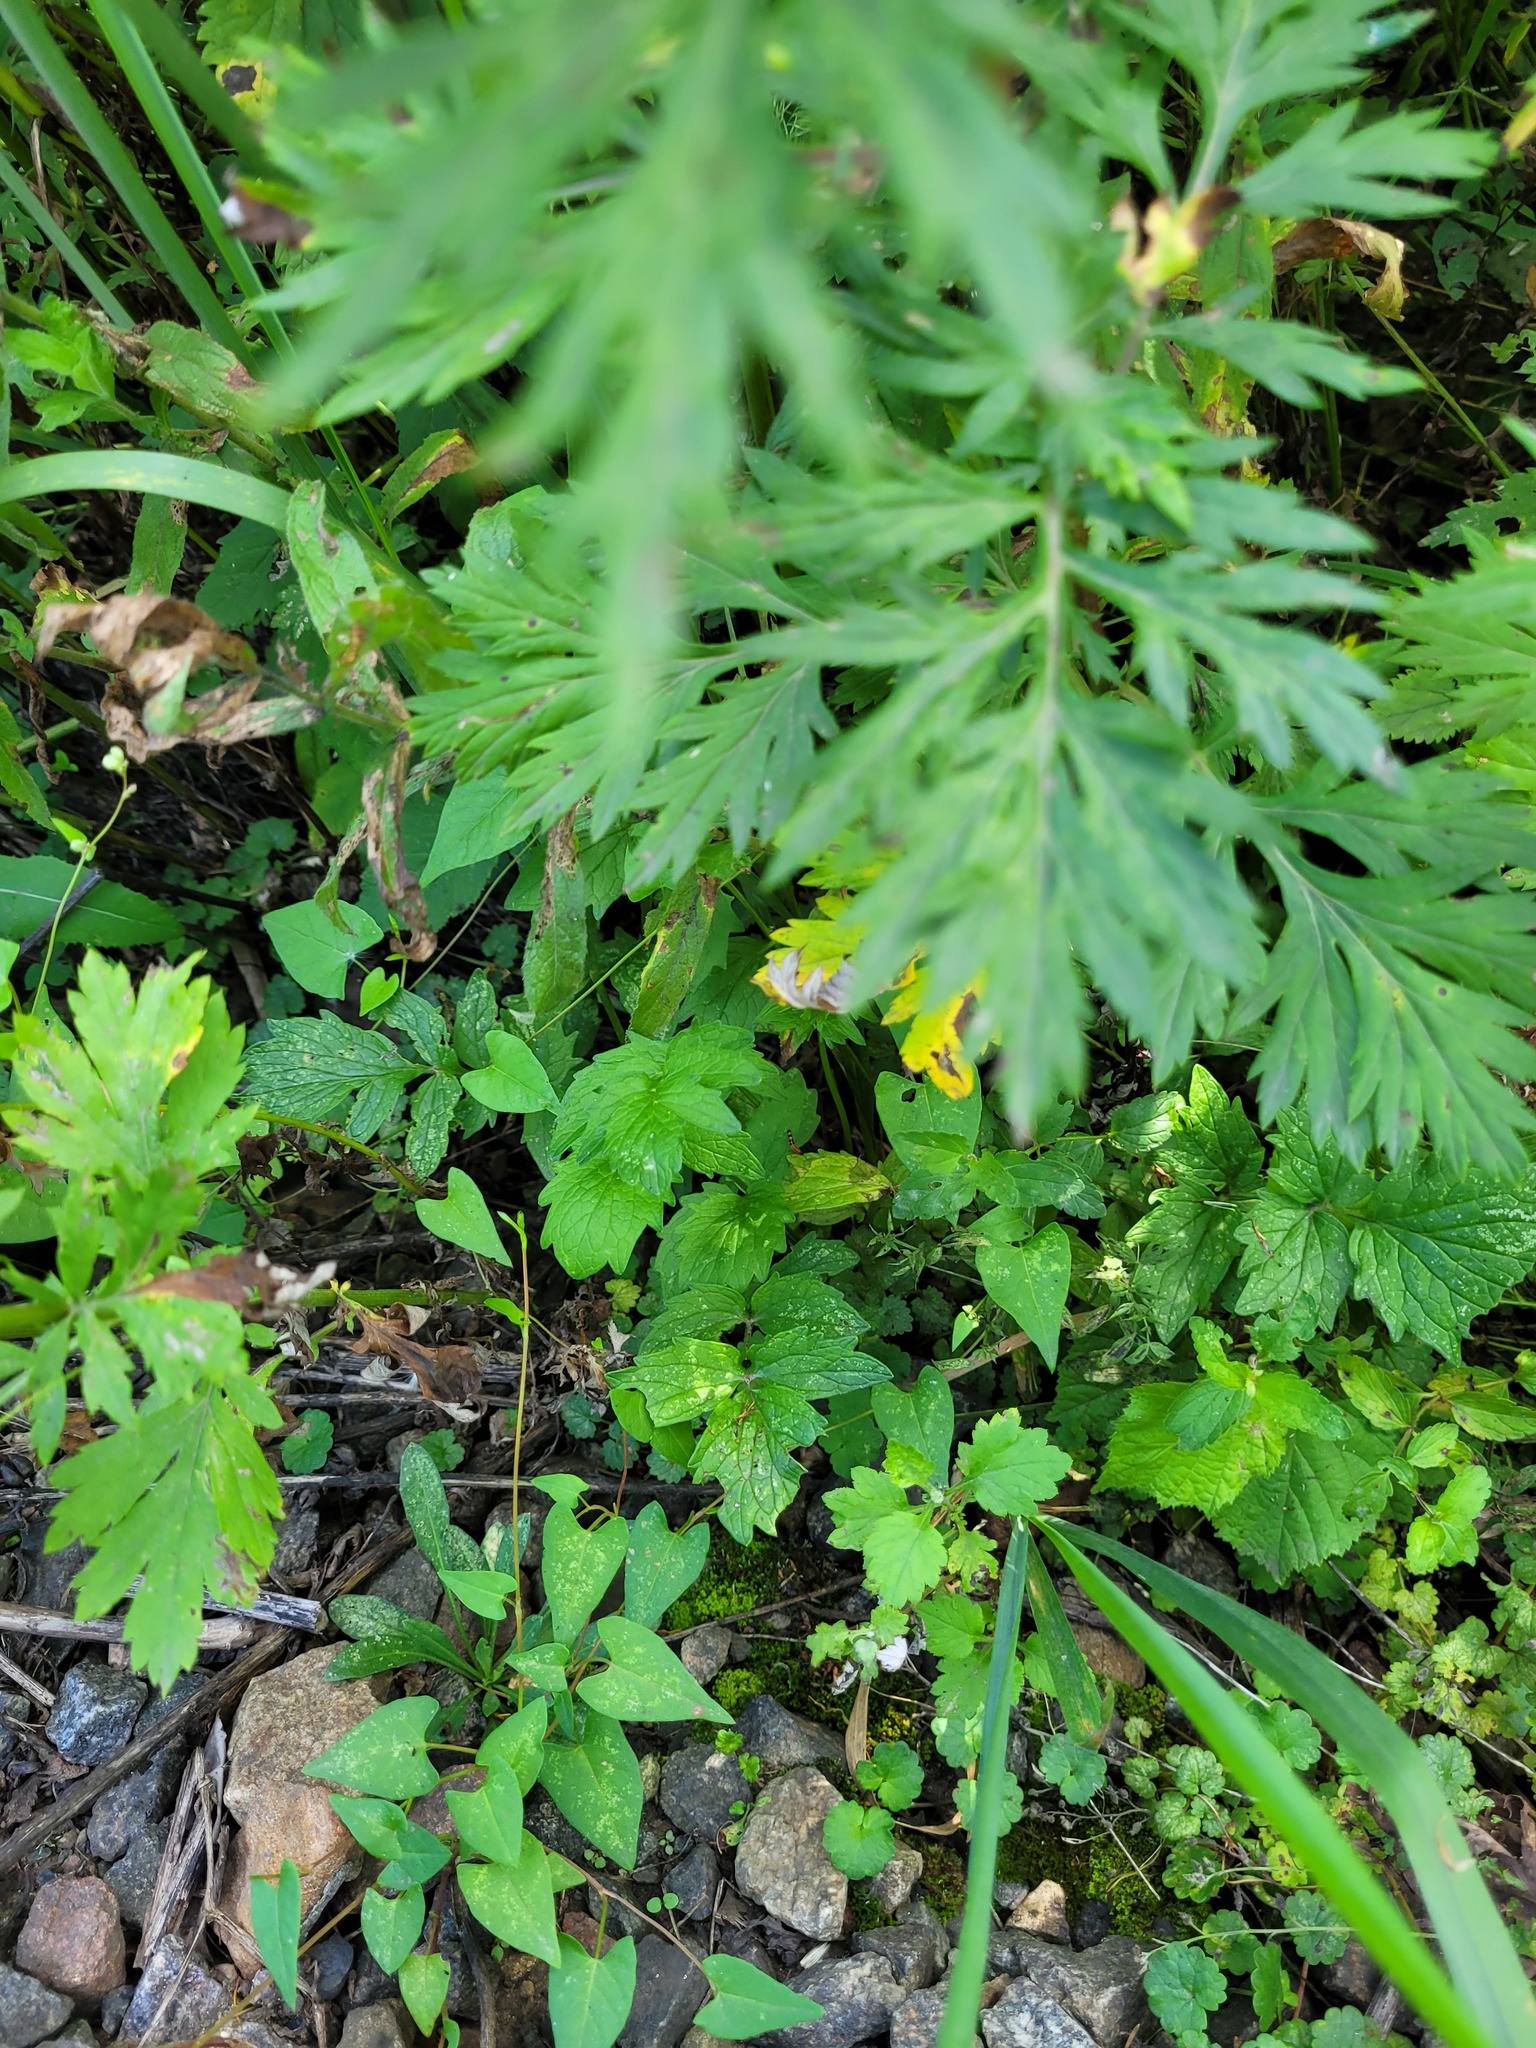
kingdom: Plantae
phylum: Tracheophyta
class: Magnoliopsida
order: Dipsacales
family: Caprifoliaceae
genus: Valeriana
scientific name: Valeriana officinalis
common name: Common valerian
